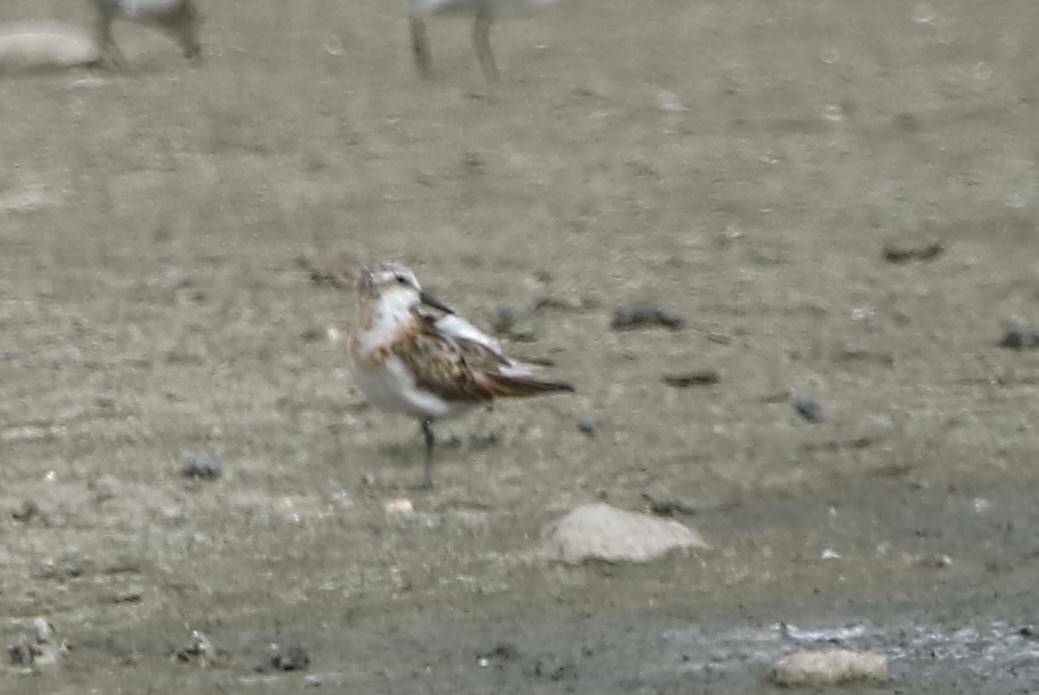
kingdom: Animalia
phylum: Chordata
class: Aves
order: Charadriiformes
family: Scolopacidae
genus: Calidris
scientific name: Calidris minuta
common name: Little stint
